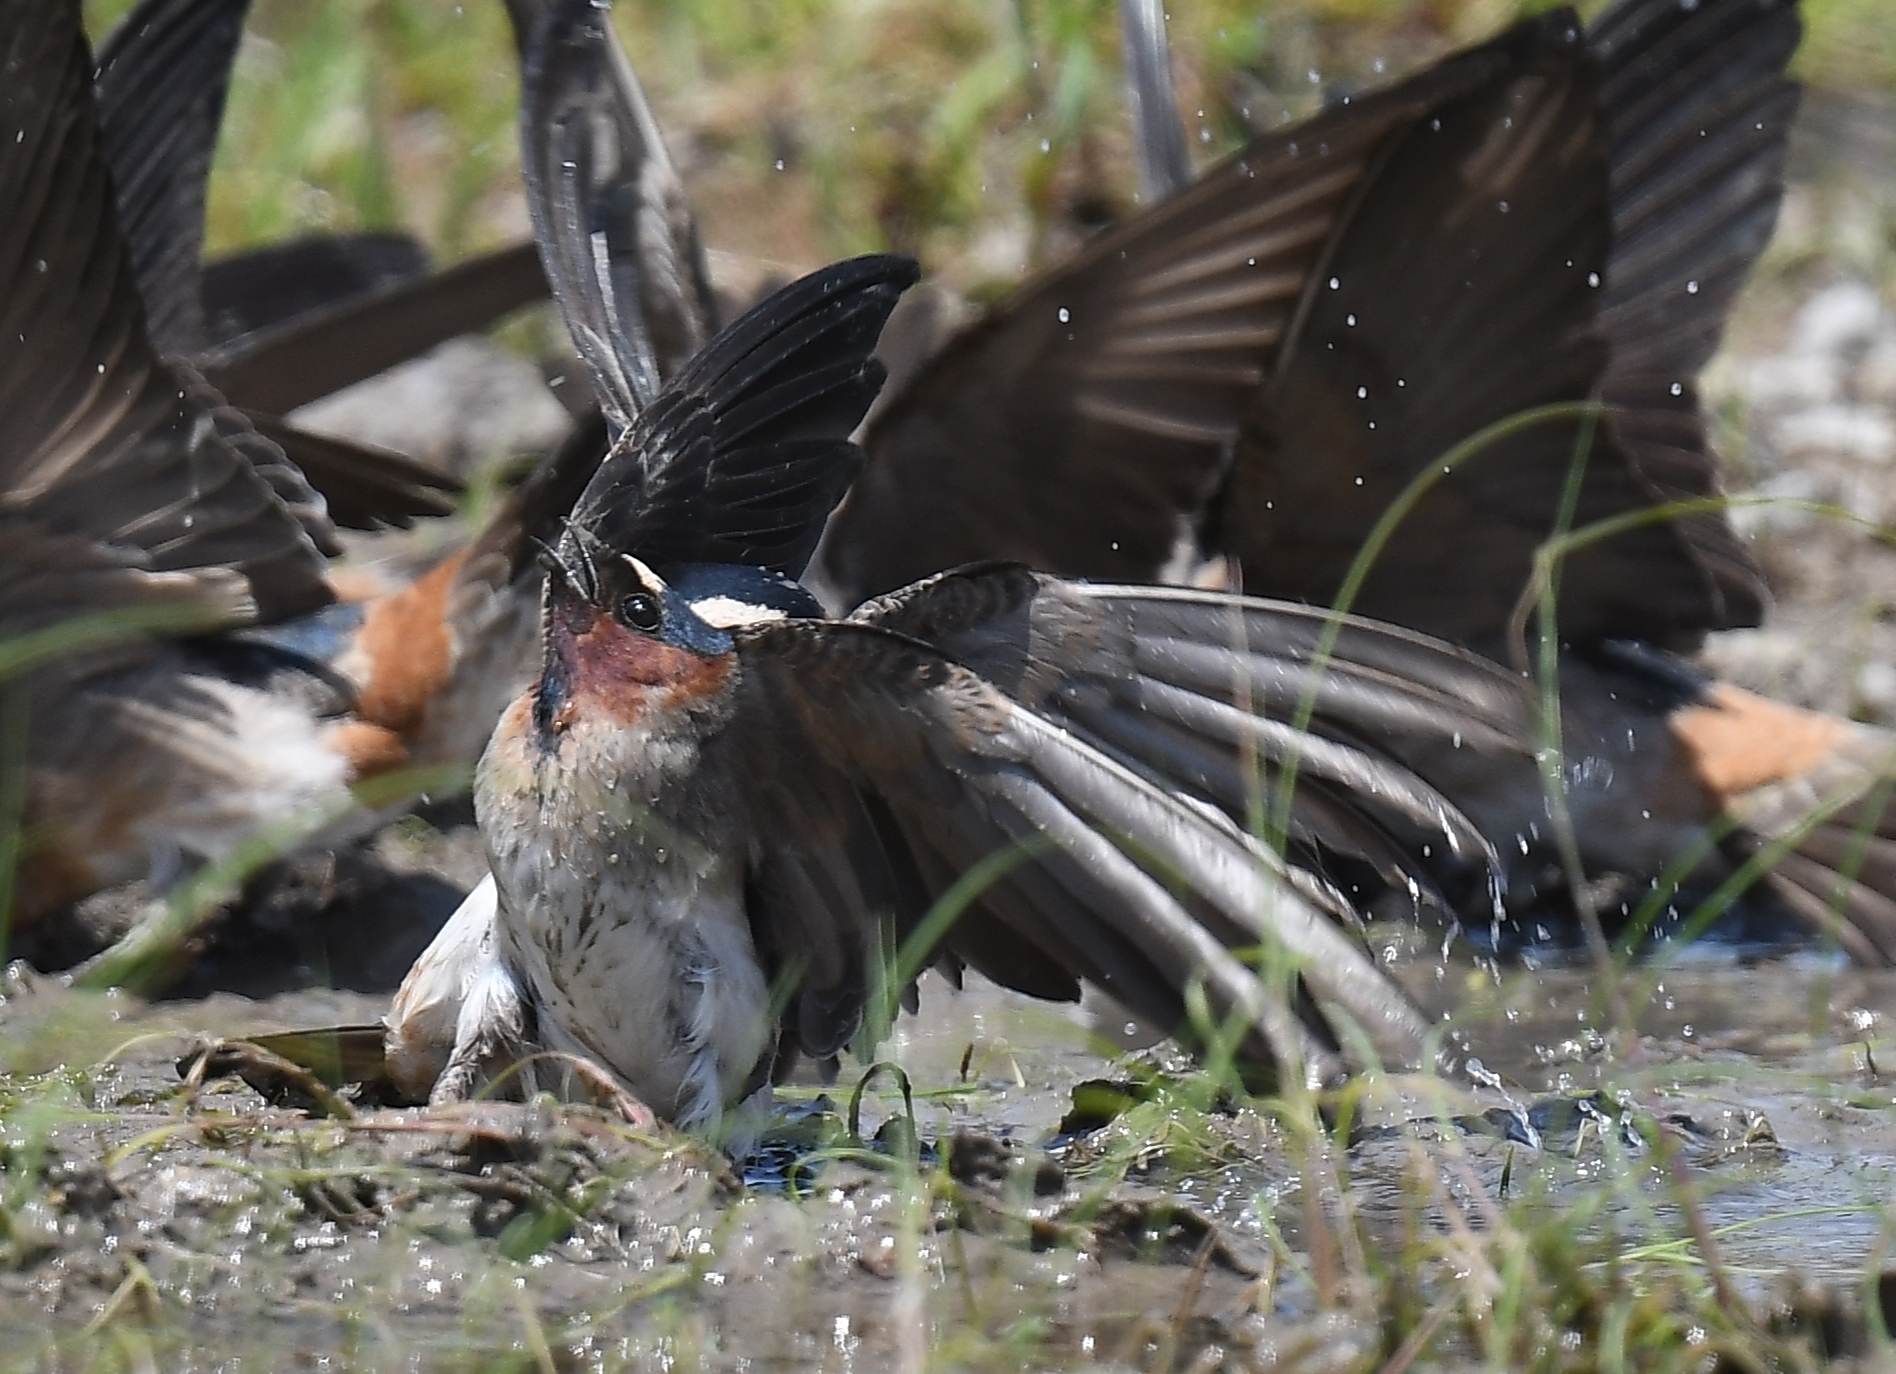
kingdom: Animalia
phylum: Chordata
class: Aves
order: Passeriformes
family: Hirundinidae
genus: Petrochelidon
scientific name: Petrochelidon pyrrhonota
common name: American cliff swallow
